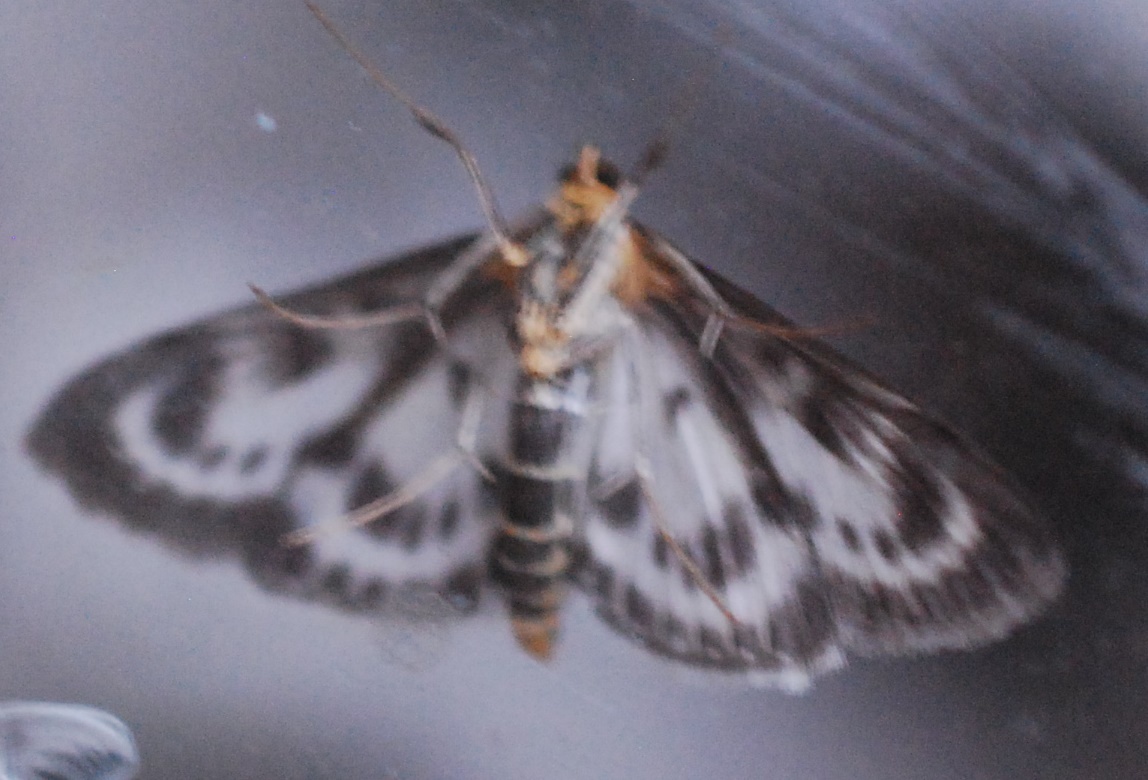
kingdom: Animalia
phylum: Arthropoda
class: Insecta
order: Lepidoptera
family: Crambidae
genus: Anania
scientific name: Anania hortulata
